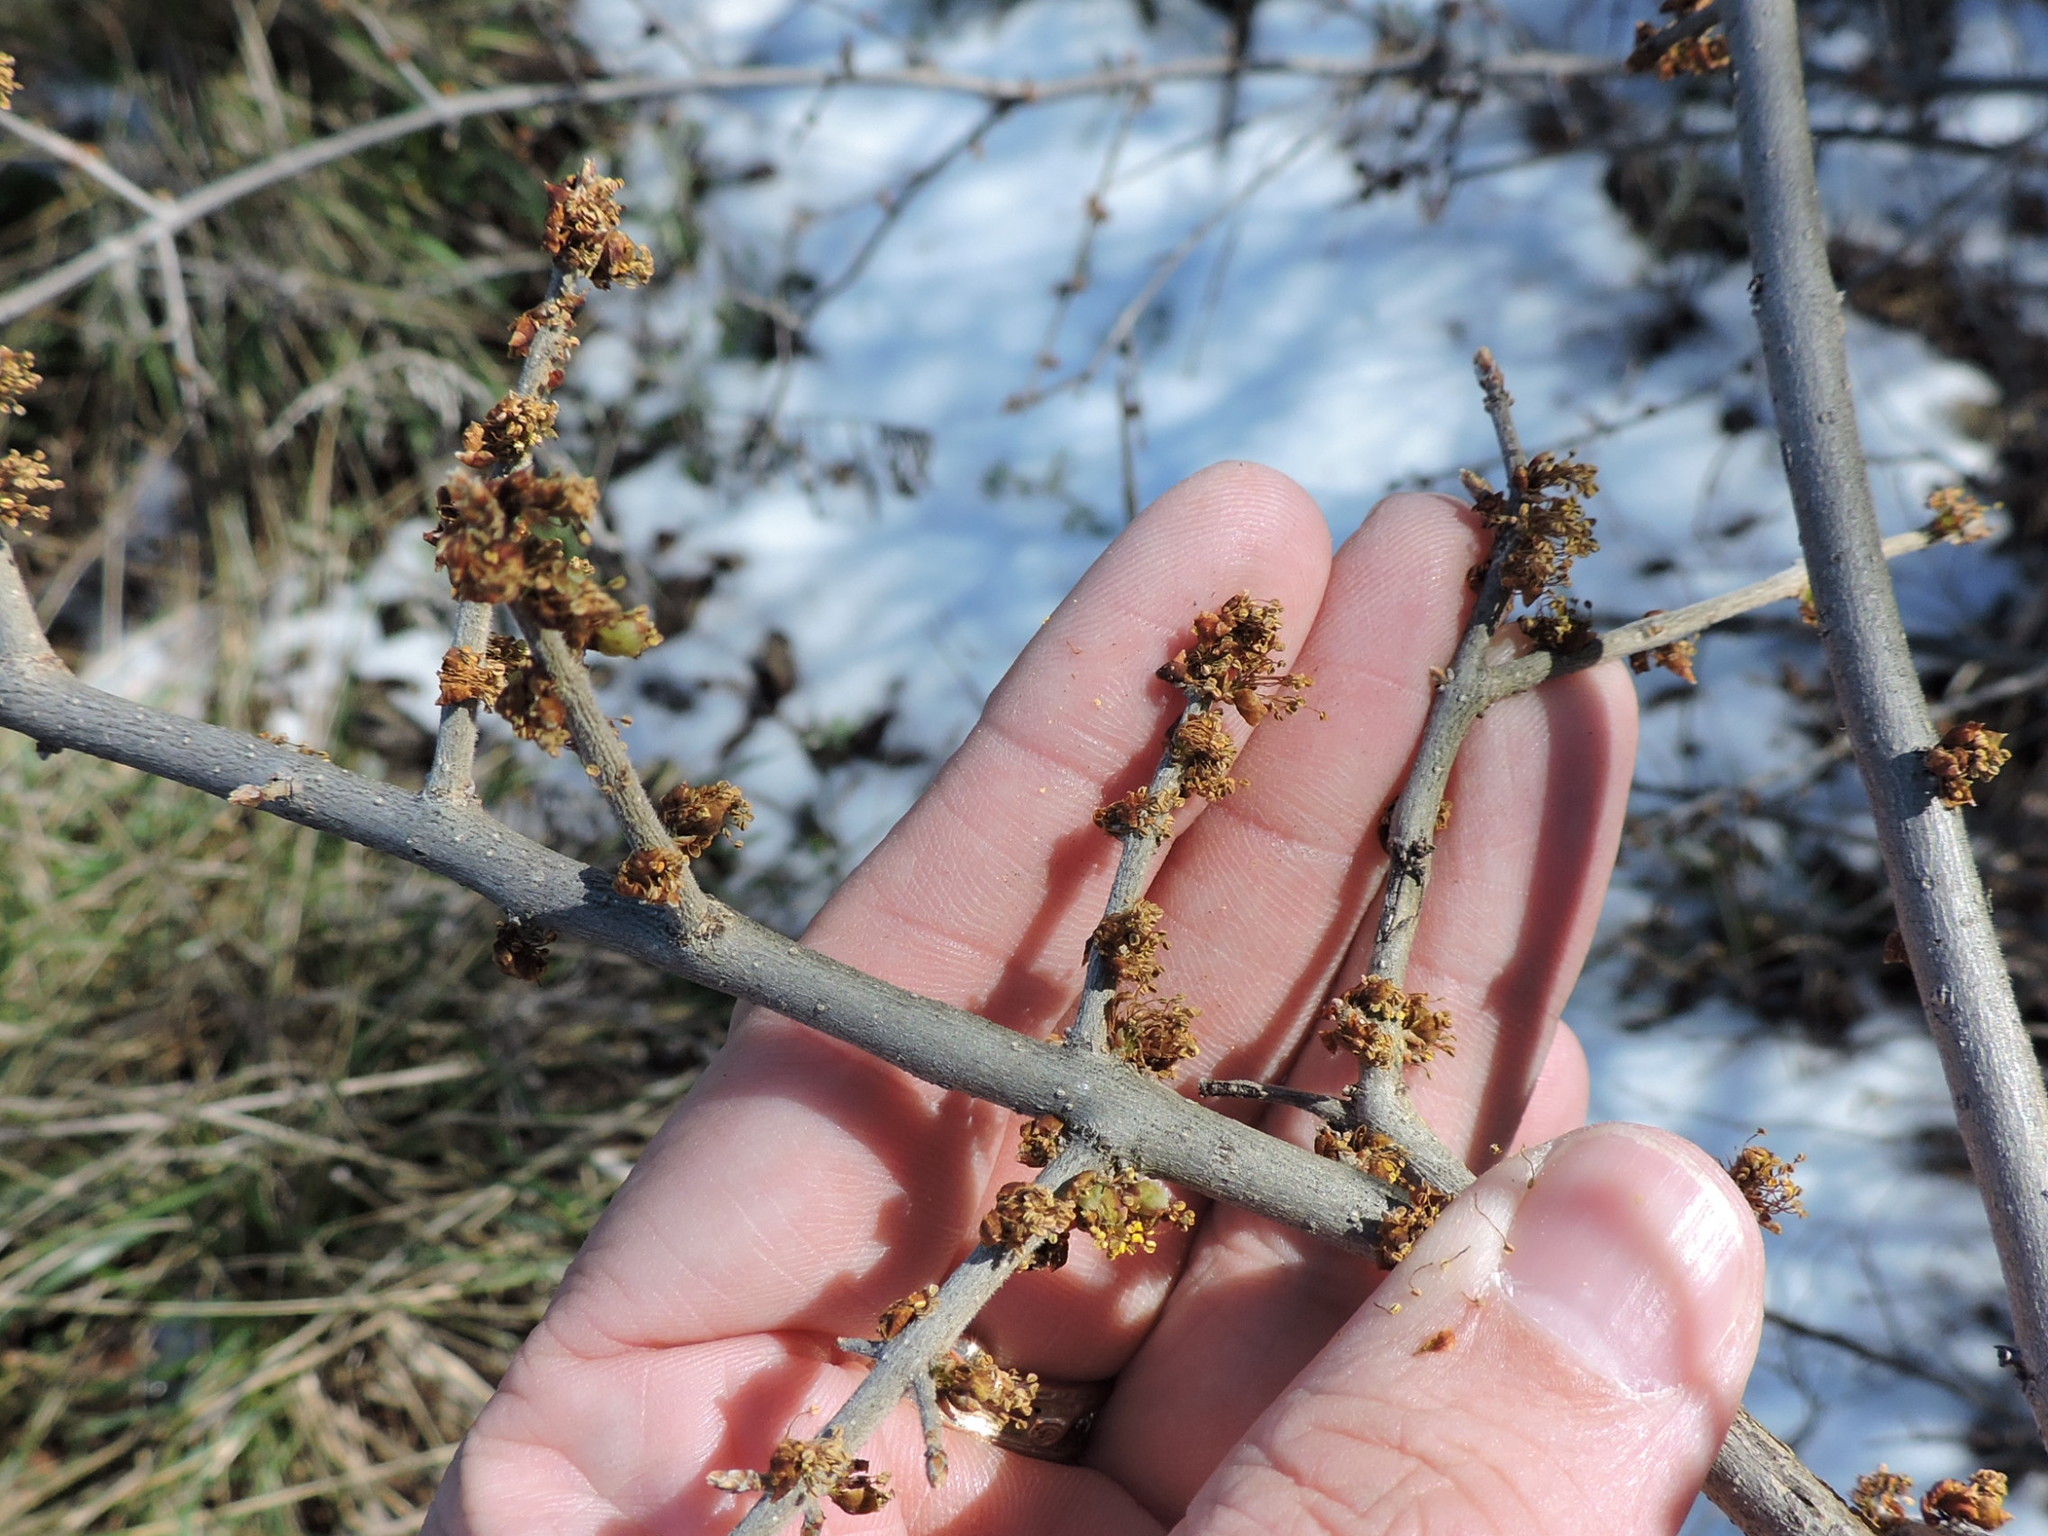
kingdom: Plantae
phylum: Tracheophyta
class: Magnoliopsida
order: Lamiales
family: Oleaceae
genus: Forestiera
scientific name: Forestiera pubescens
